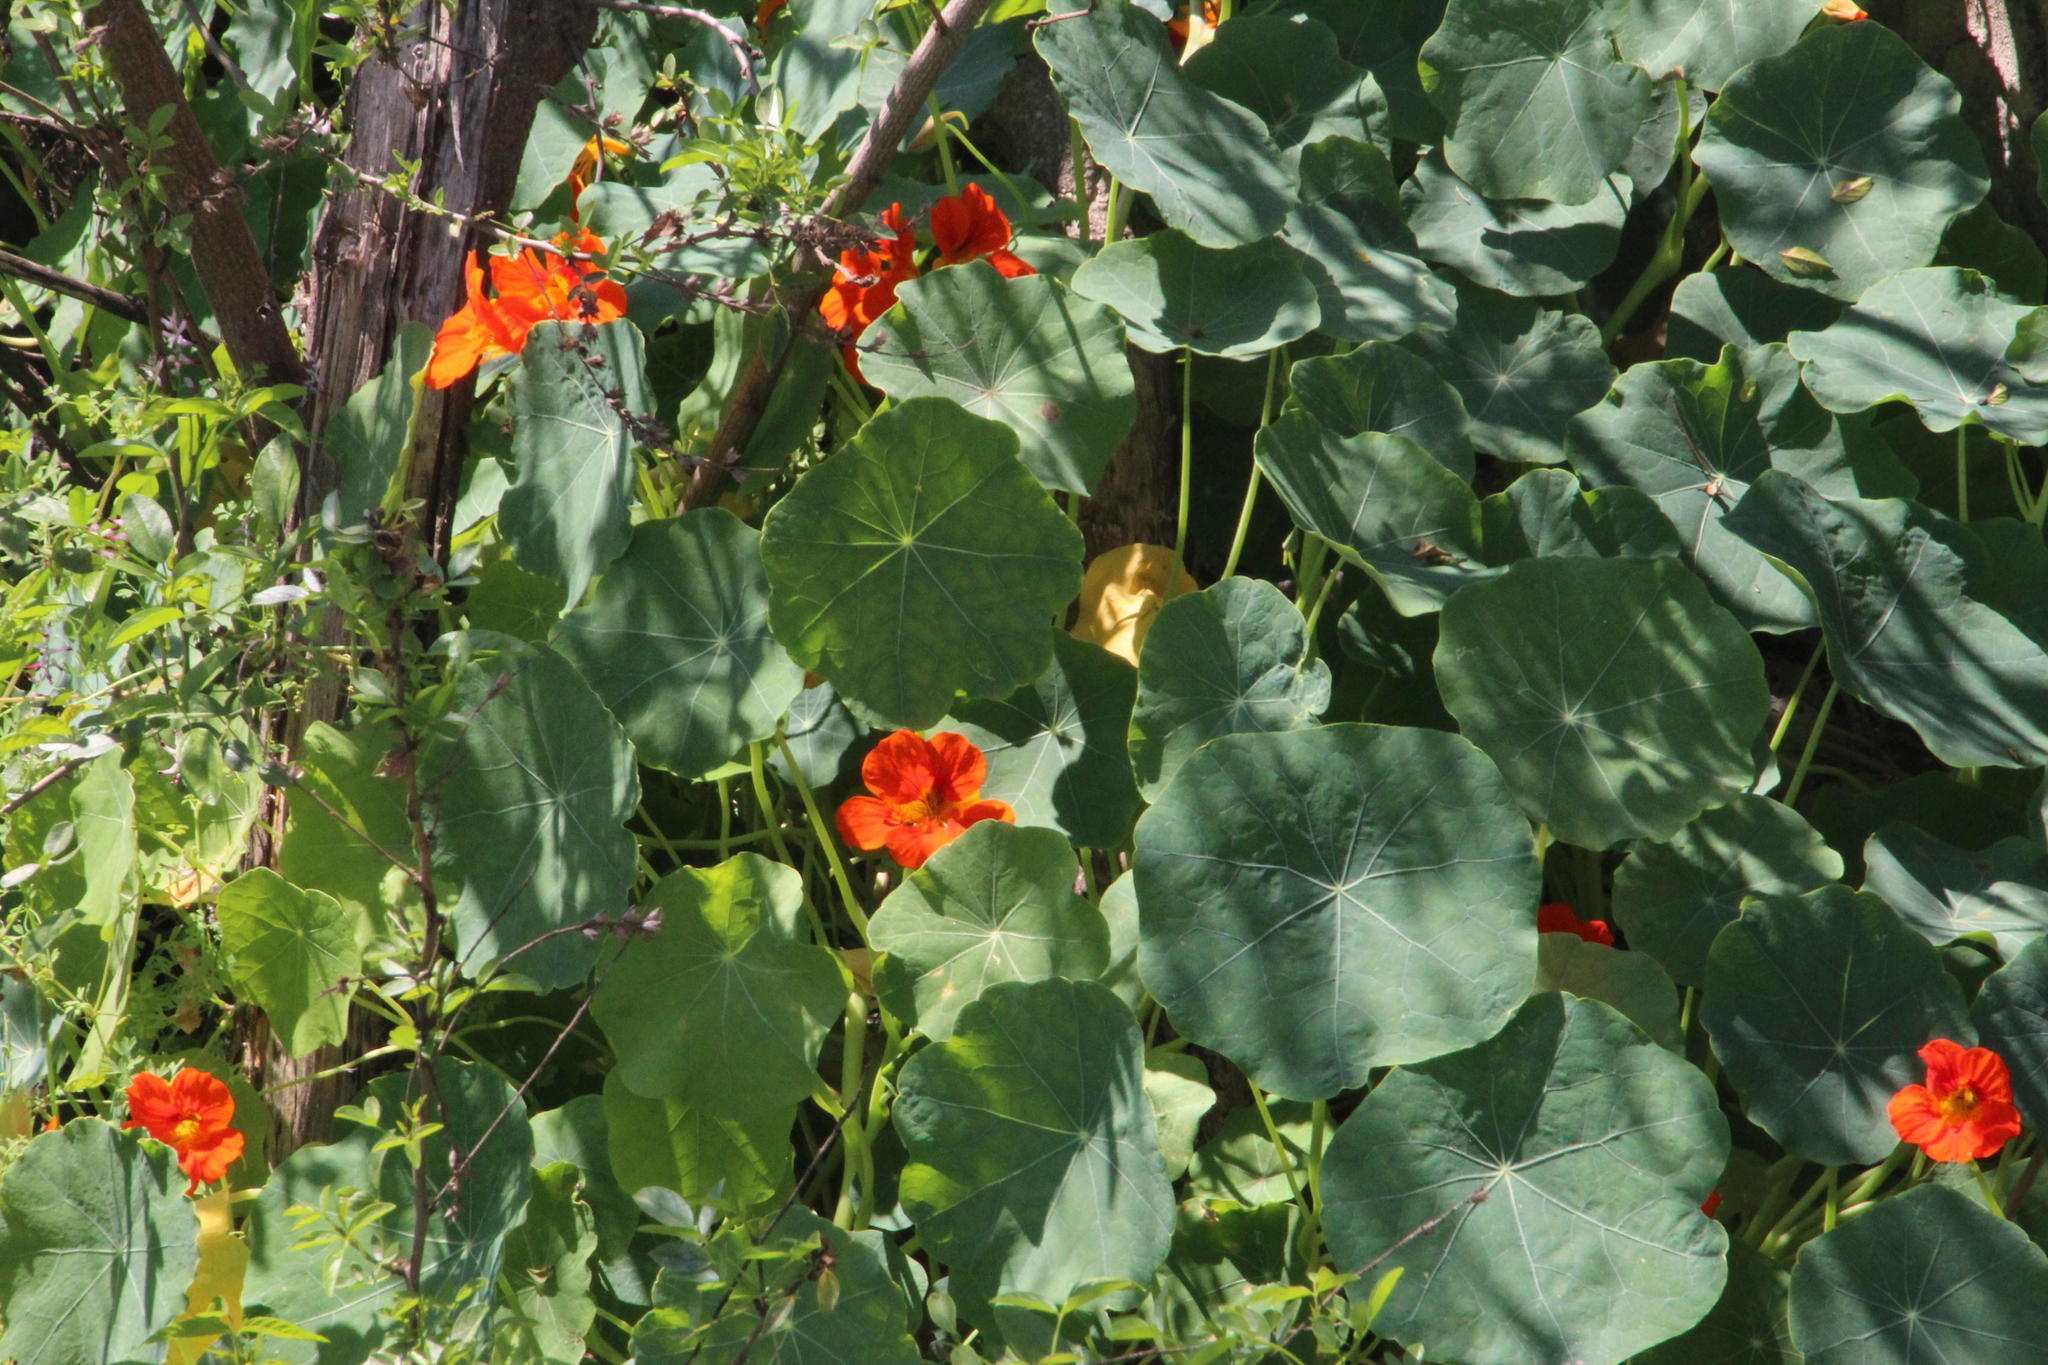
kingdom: Plantae
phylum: Tracheophyta
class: Magnoliopsida
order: Brassicales
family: Tropaeolaceae
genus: Tropaeolum
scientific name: Tropaeolum majus
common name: Nasturtium
